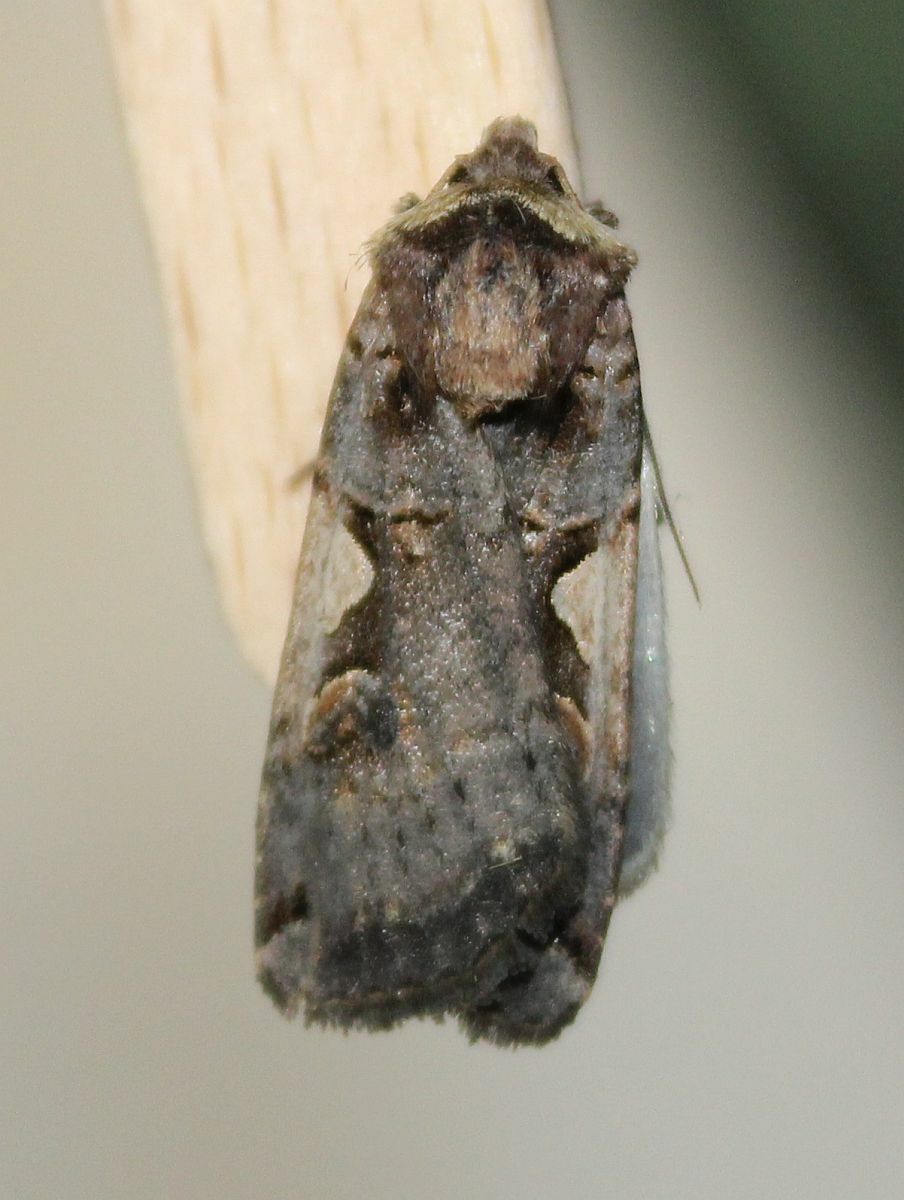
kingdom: Animalia
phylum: Arthropoda
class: Insecta
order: Lepidoptera
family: Noctuidae
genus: Xestia
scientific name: Xestia c-nigrum
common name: Setaceous hebrew character
